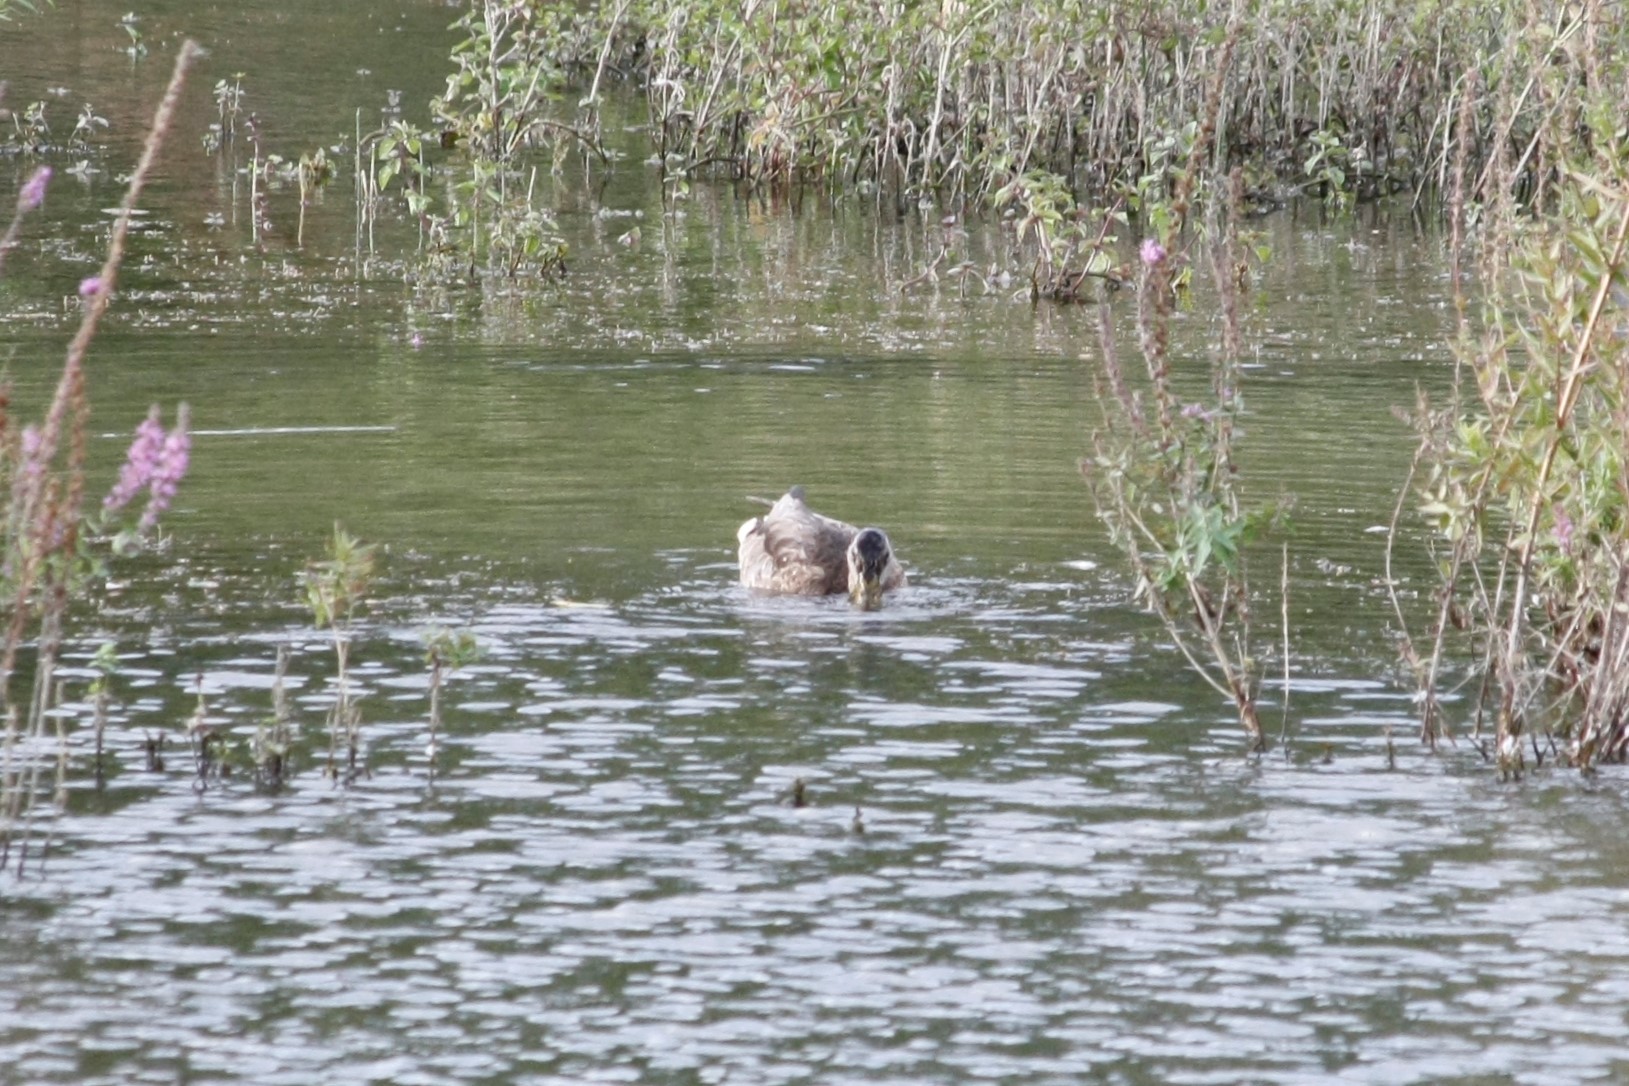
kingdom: Animalia
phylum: Chordata
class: Aves
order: Anseriformes
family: Anatidae
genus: Anas
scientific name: Anas platyrhynchos
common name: Mallard
